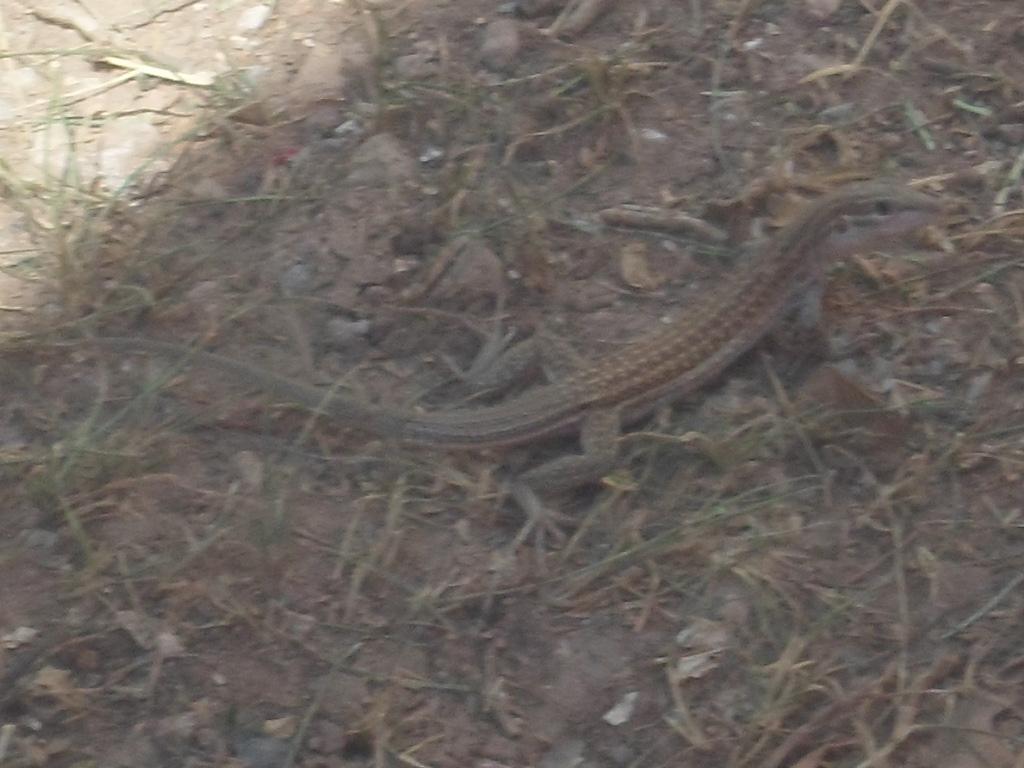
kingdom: Animalia
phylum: Chordata
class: Squamata
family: Teiidae
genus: Aspidoscelis
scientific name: Aspidoscelis exsanguis
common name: Chihuahuan spotted whiptail
